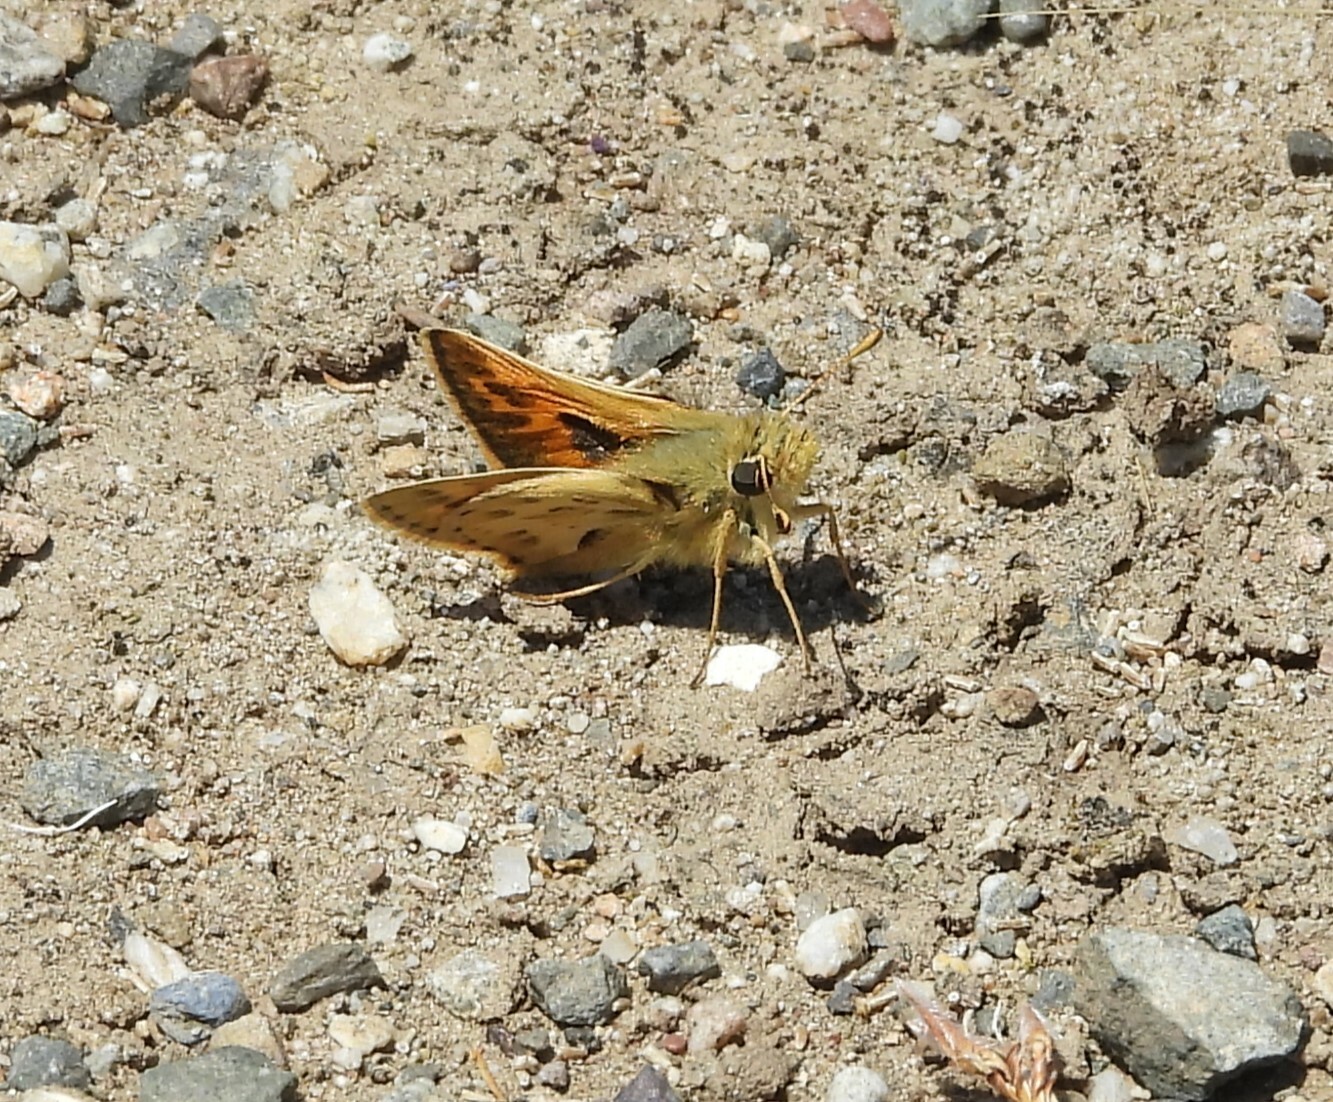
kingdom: Animalia
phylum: Arthropoda
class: Insecta
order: Lepidoptera
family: Hesperiidae
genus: Polites
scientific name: Polites sabuleti
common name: Sandhill skipper
